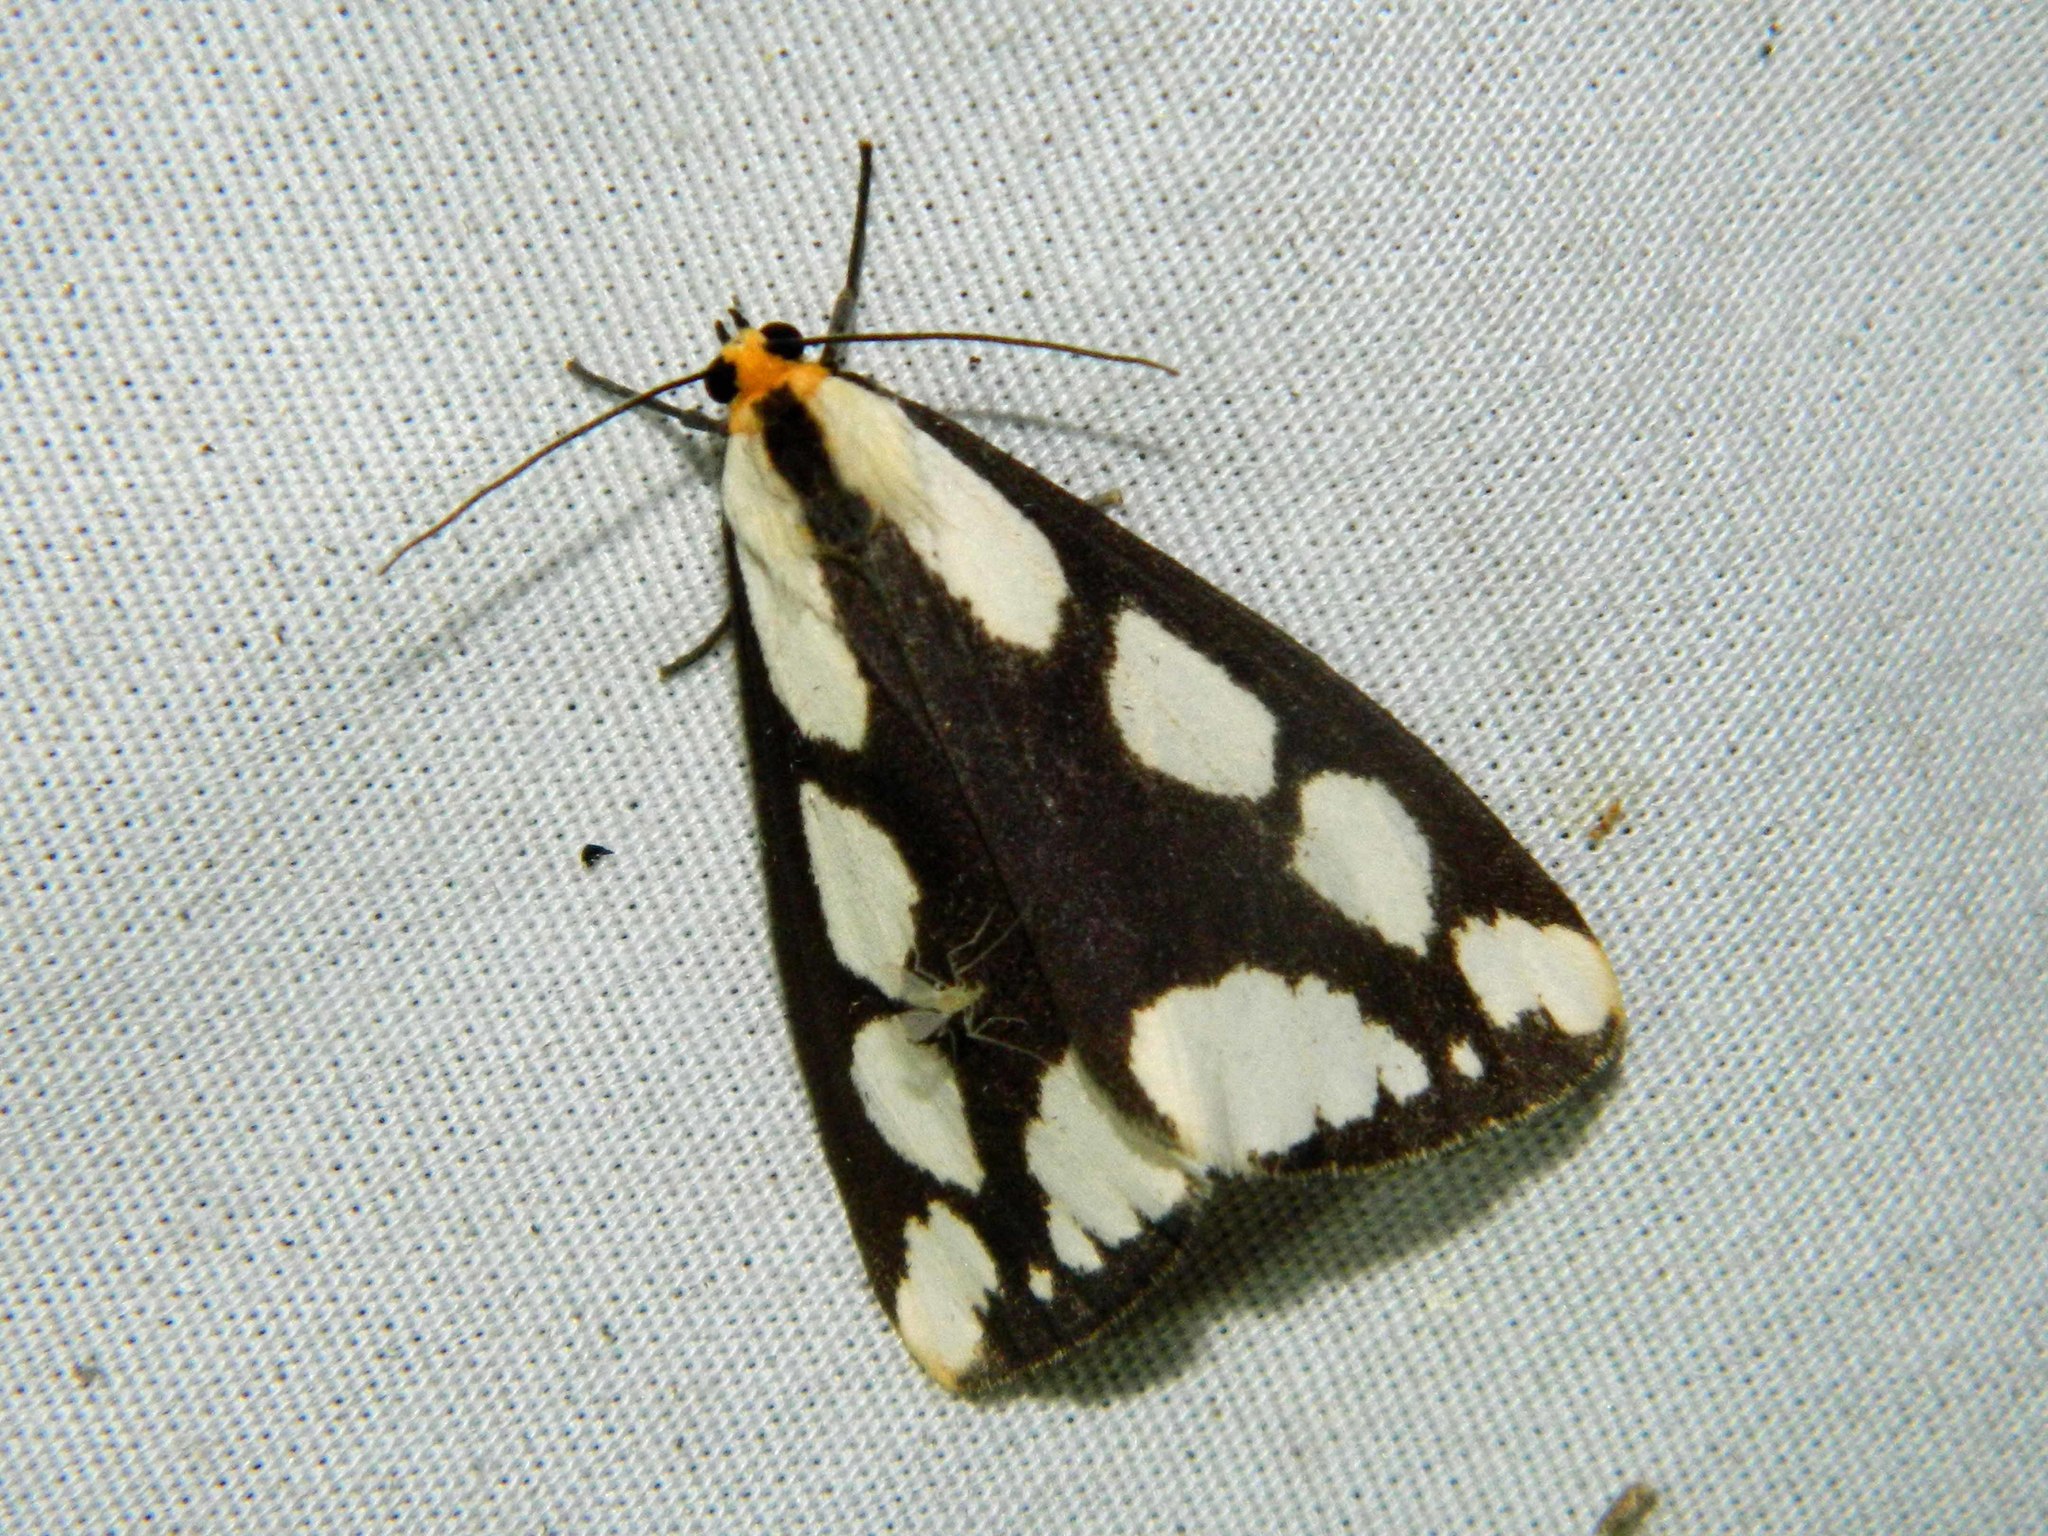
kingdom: Animalia
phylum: Arthropoda
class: Insecta
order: Lepidoptera
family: Erebidae
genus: Haploa
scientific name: Haploa lecontei
